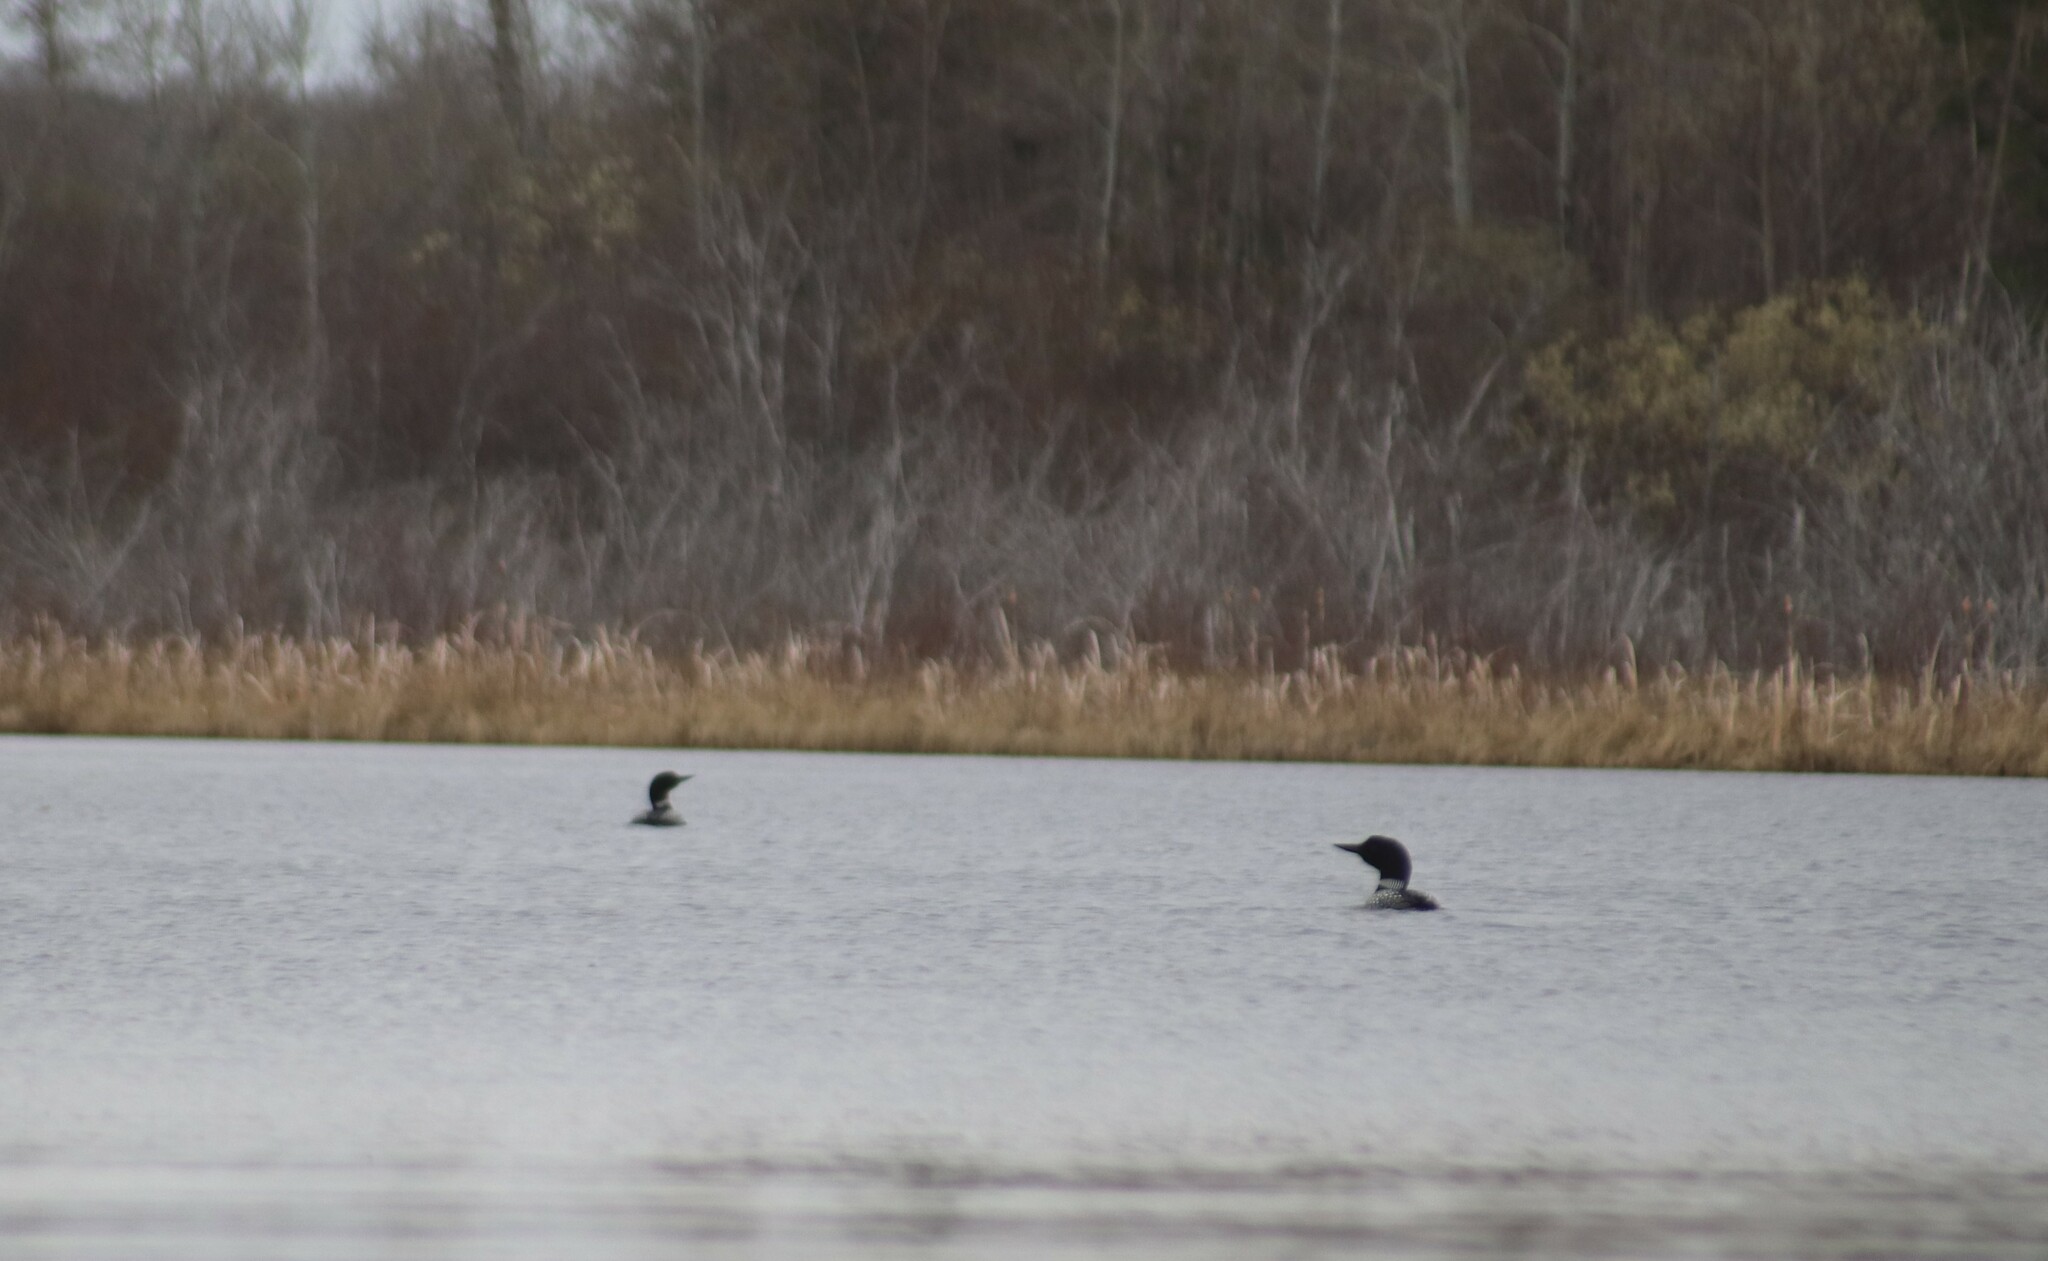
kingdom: Animalia
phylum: Chordata
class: Aves
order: Gaviiformes
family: Gaviidae
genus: Gavia
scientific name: Gavia immer
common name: Common loon
